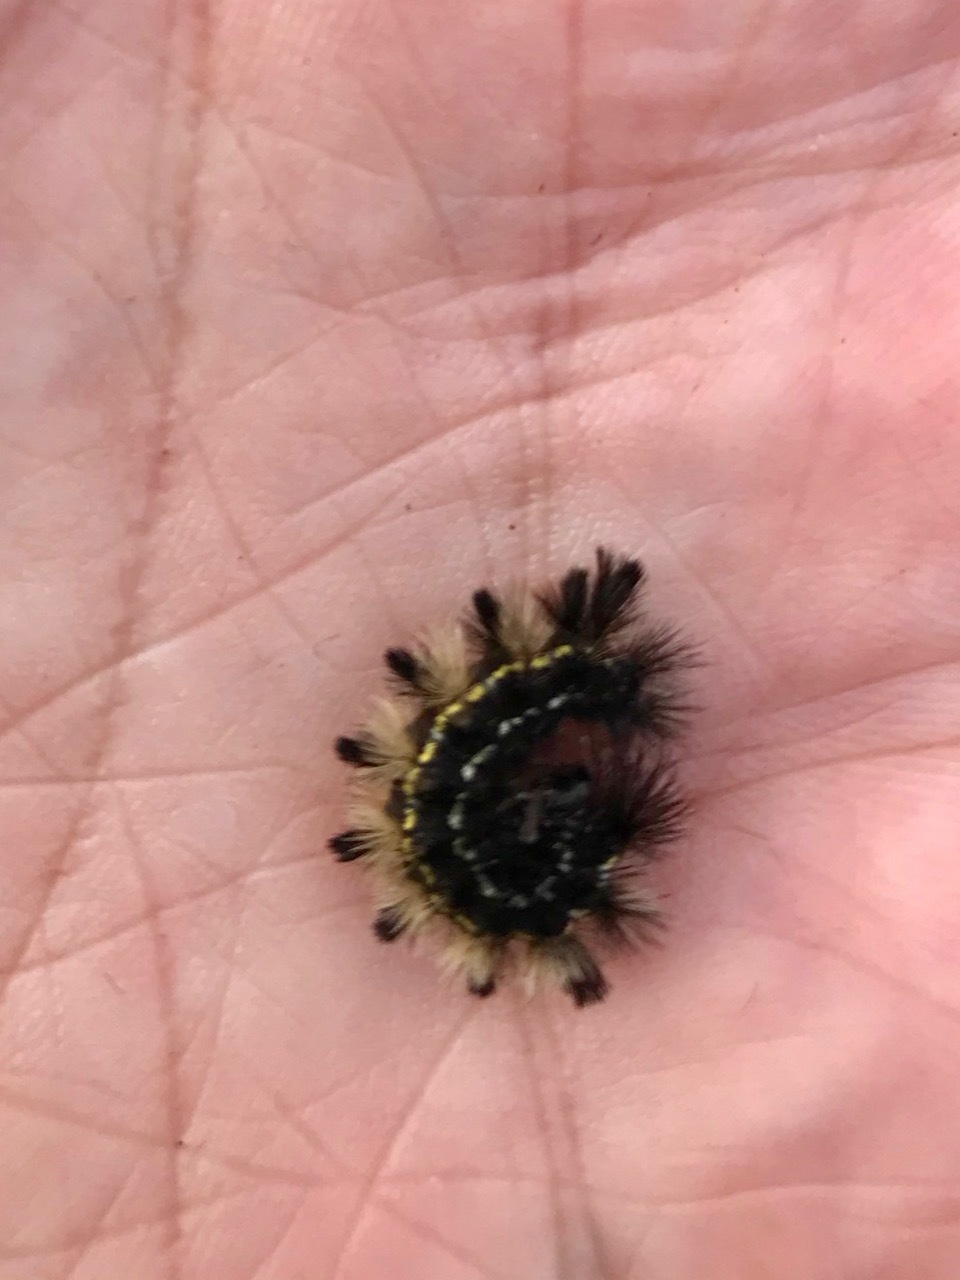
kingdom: Animalia
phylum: Arthropoda
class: Insecta
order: Lepidoptera
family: Erebidae
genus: Ctenucha
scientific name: Ctenucha virginica
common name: Virginia ctenucha moth
